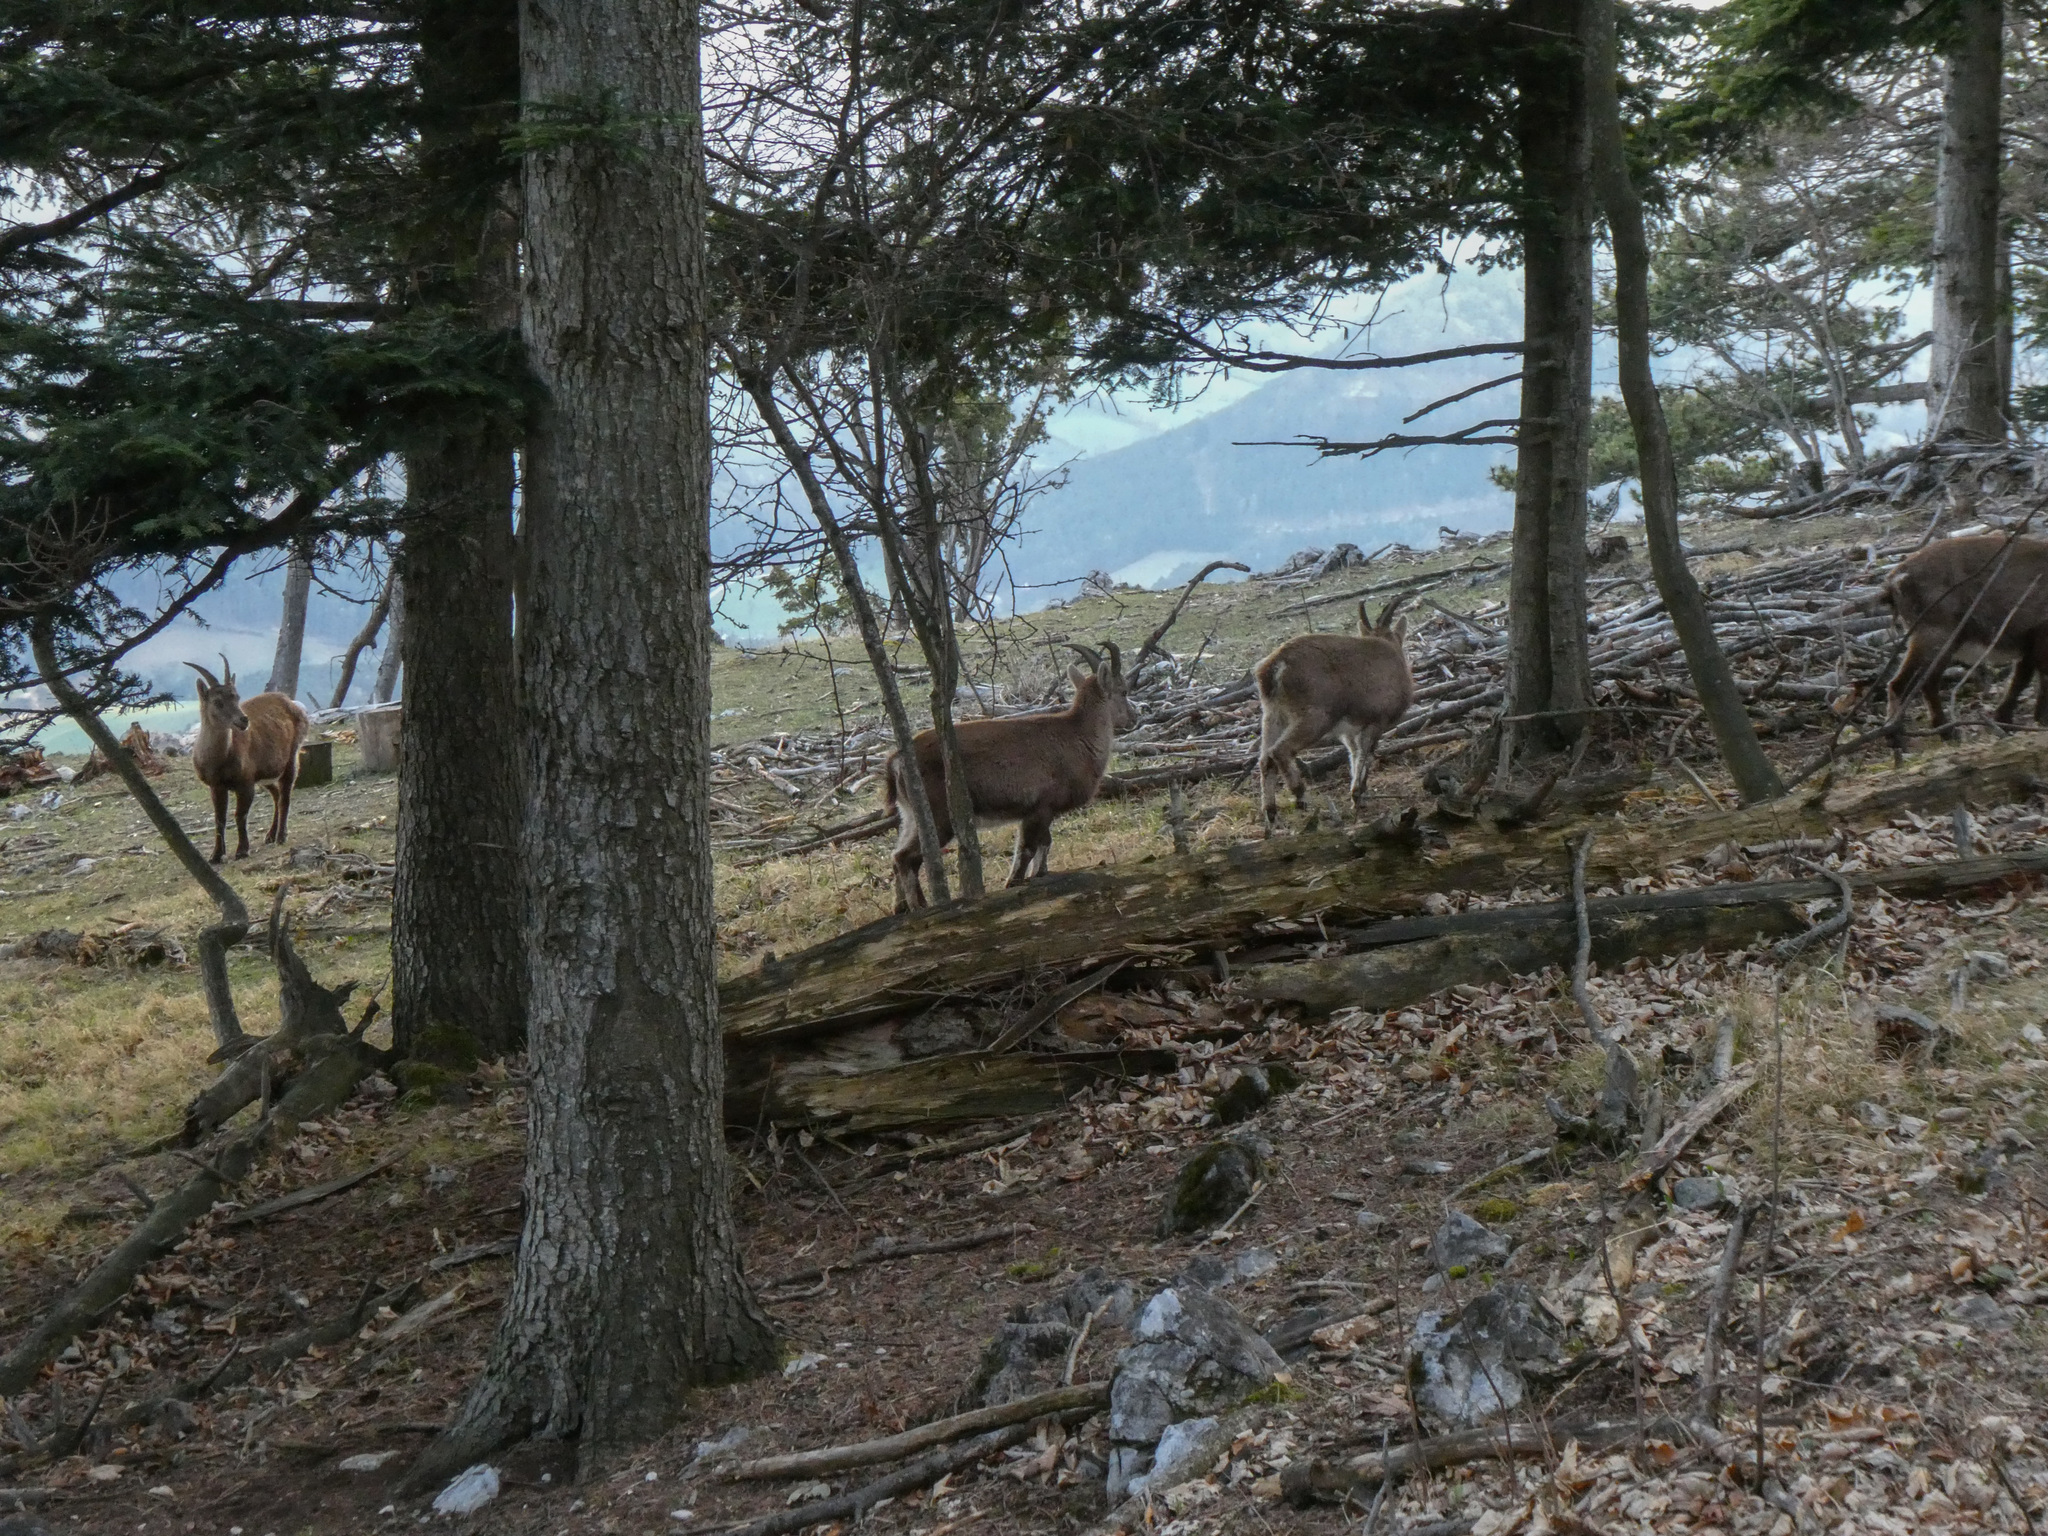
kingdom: Animalia
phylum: Chordata
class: Mammalia
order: Artiodactyla
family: Bovidae
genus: Capra
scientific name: Capra ibex
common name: Alpine ibex
